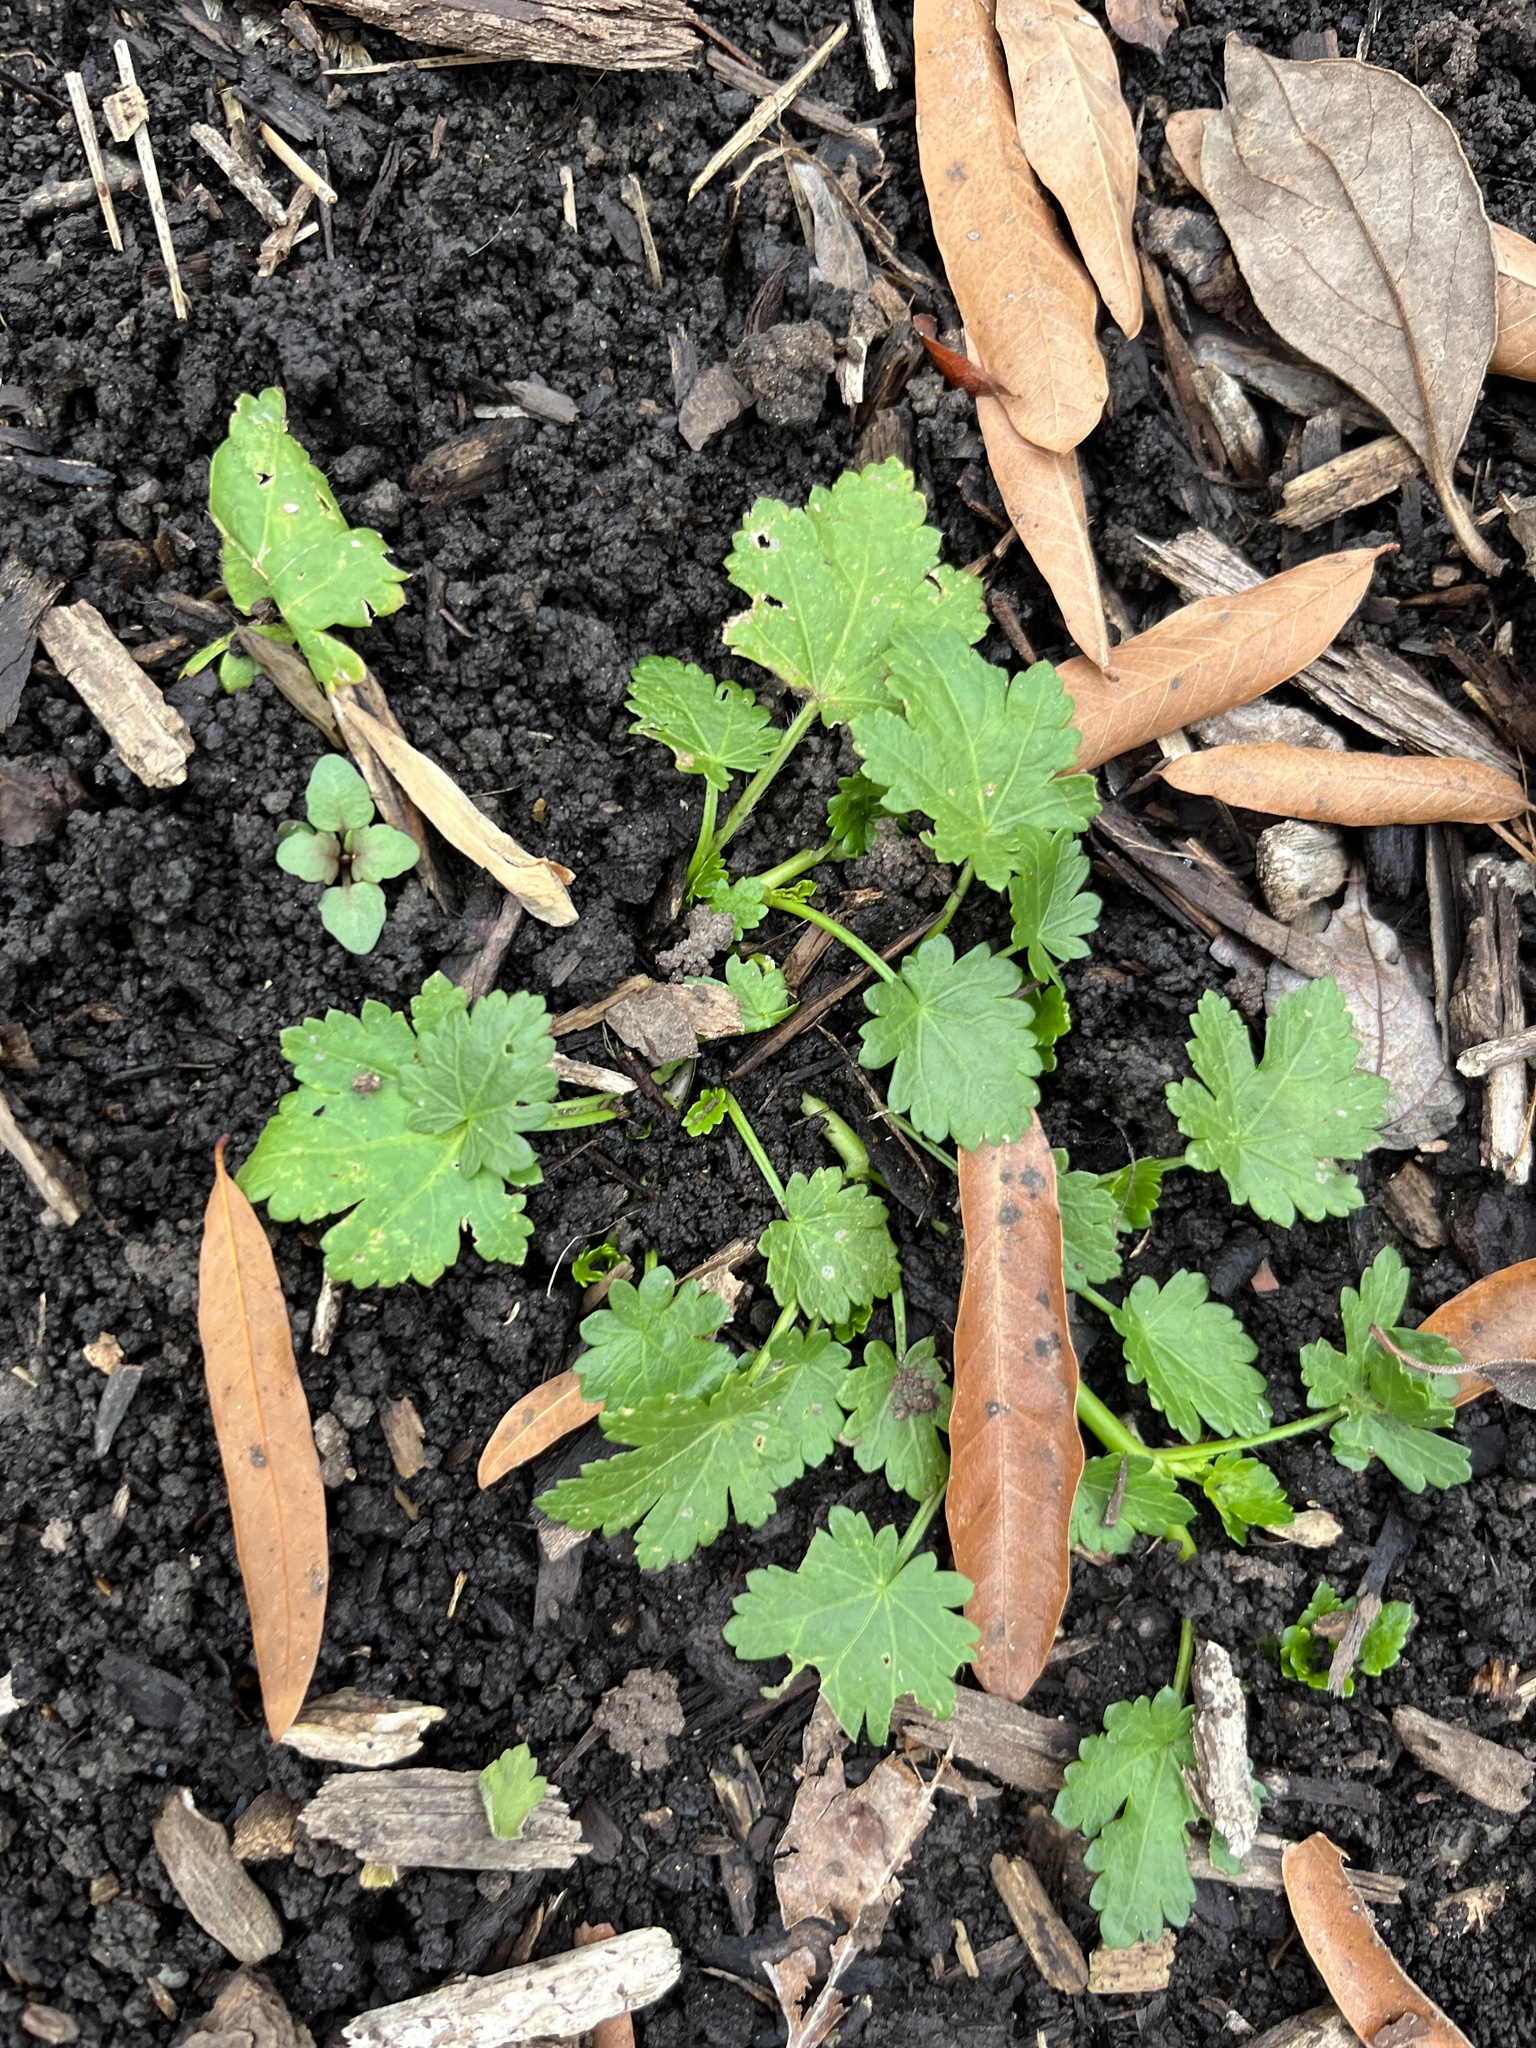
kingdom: Plantae
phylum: Tracheophyta
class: Magnoliopsida
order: Malvales
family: Malvaceae
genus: Modiola
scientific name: Modiola caroliniana
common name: Carolina bristlemallow
